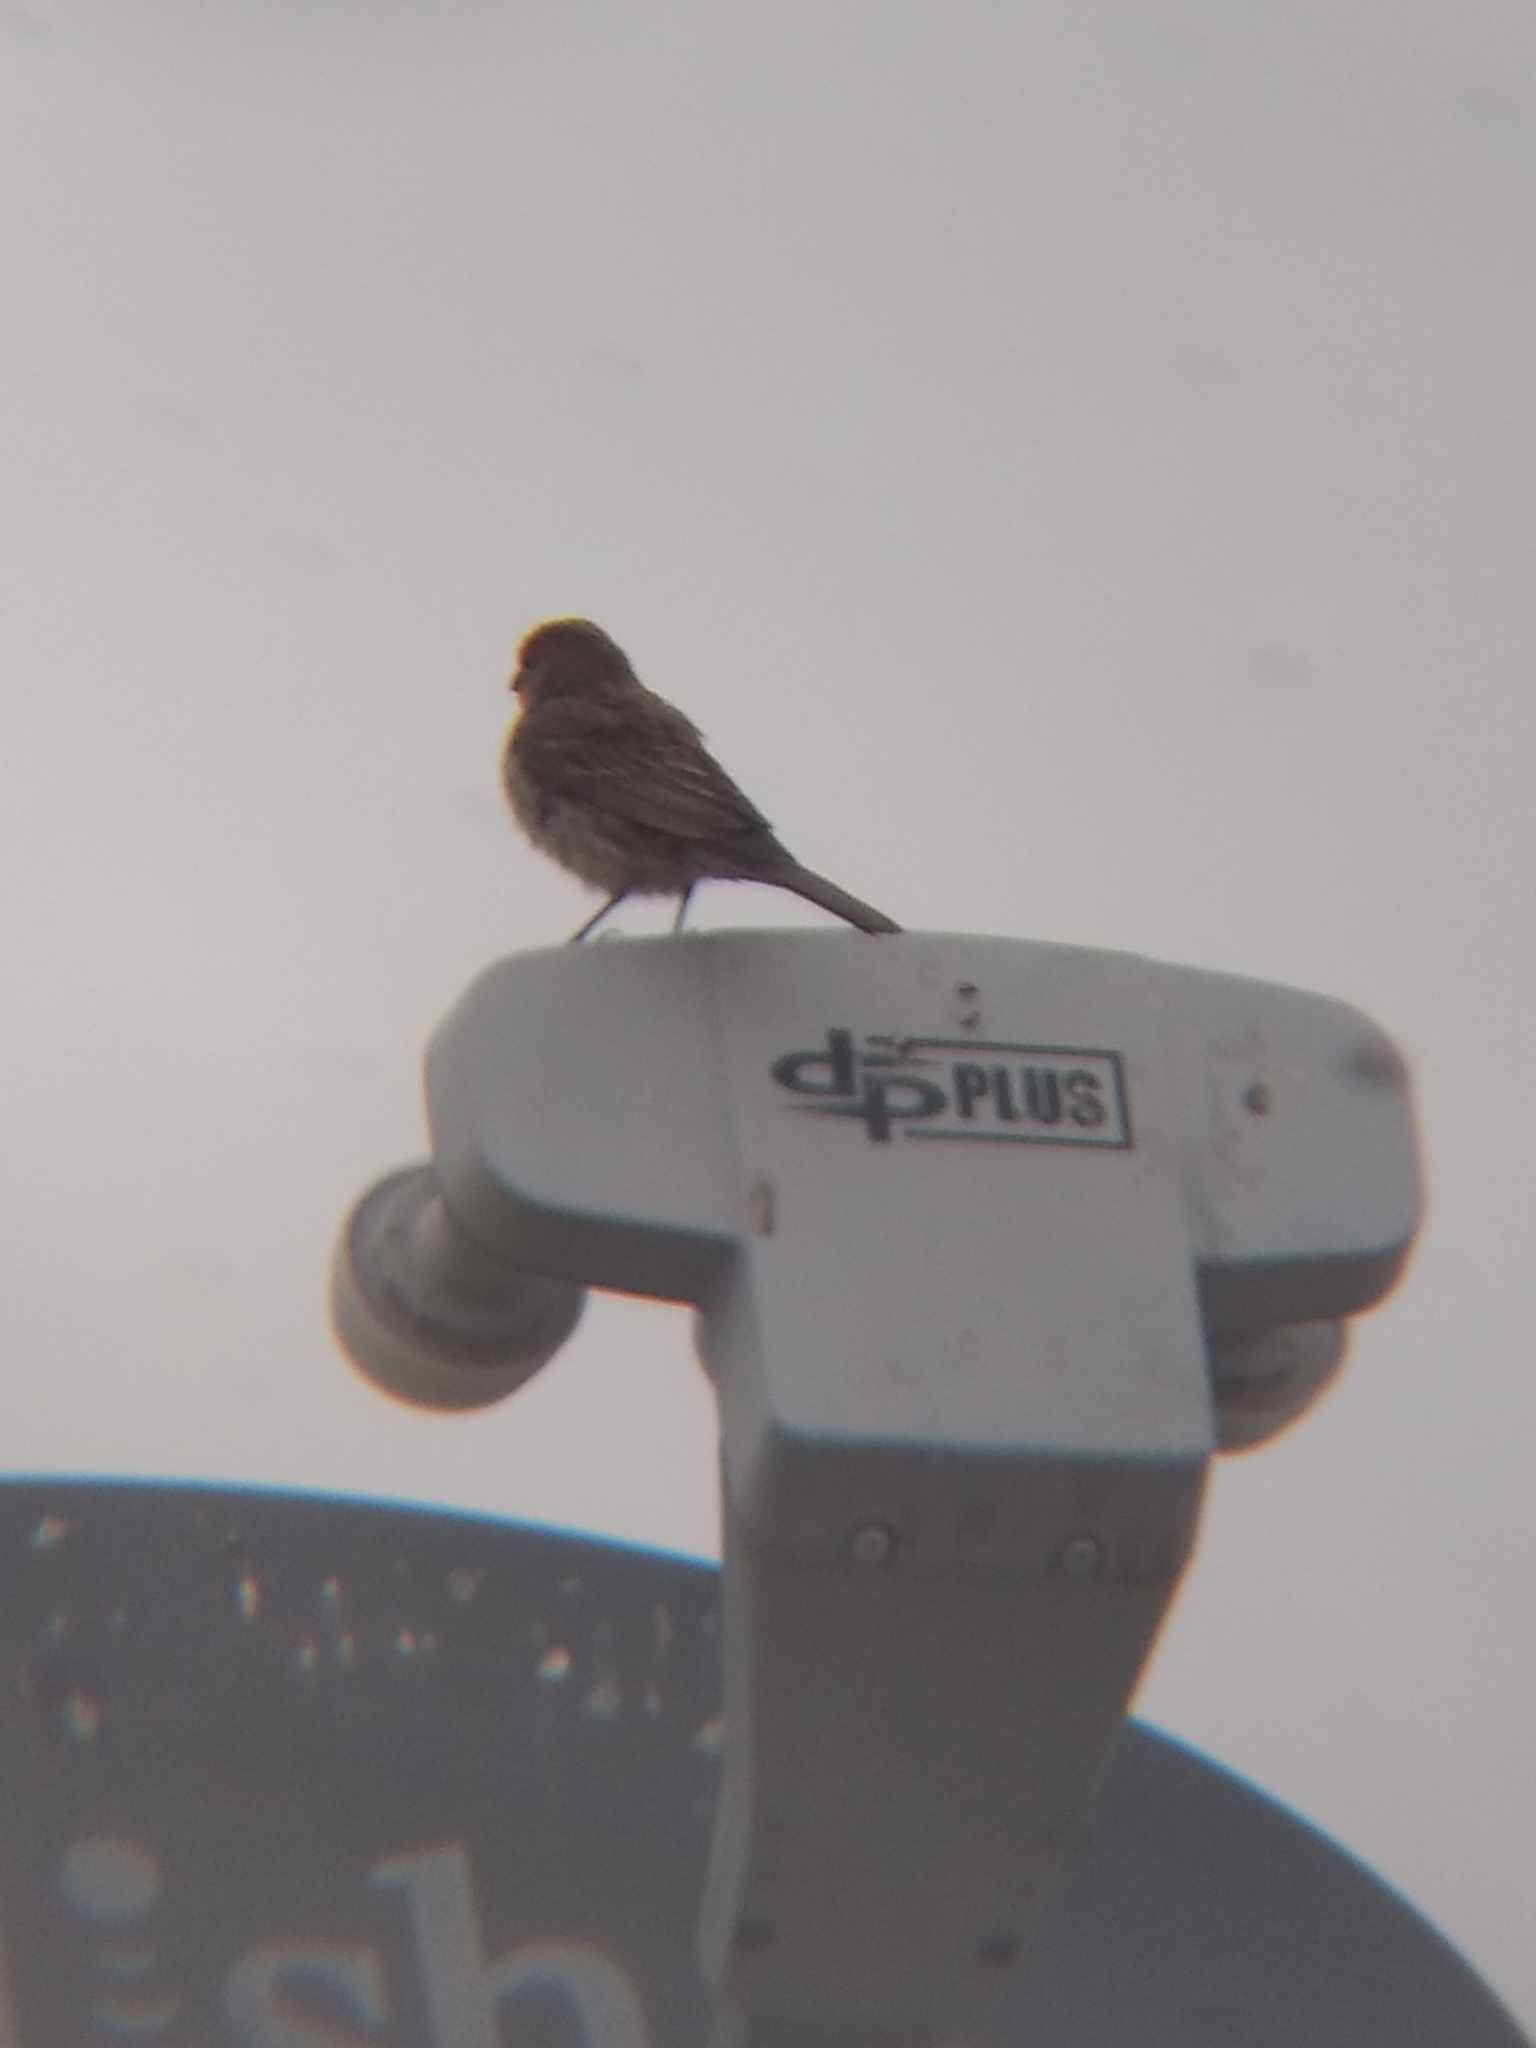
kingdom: Animalia
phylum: Chordata
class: Aves
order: Passeriformes
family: Fringillidae
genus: Haemorhous
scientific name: Haemorhous mexicanus
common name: House finch
